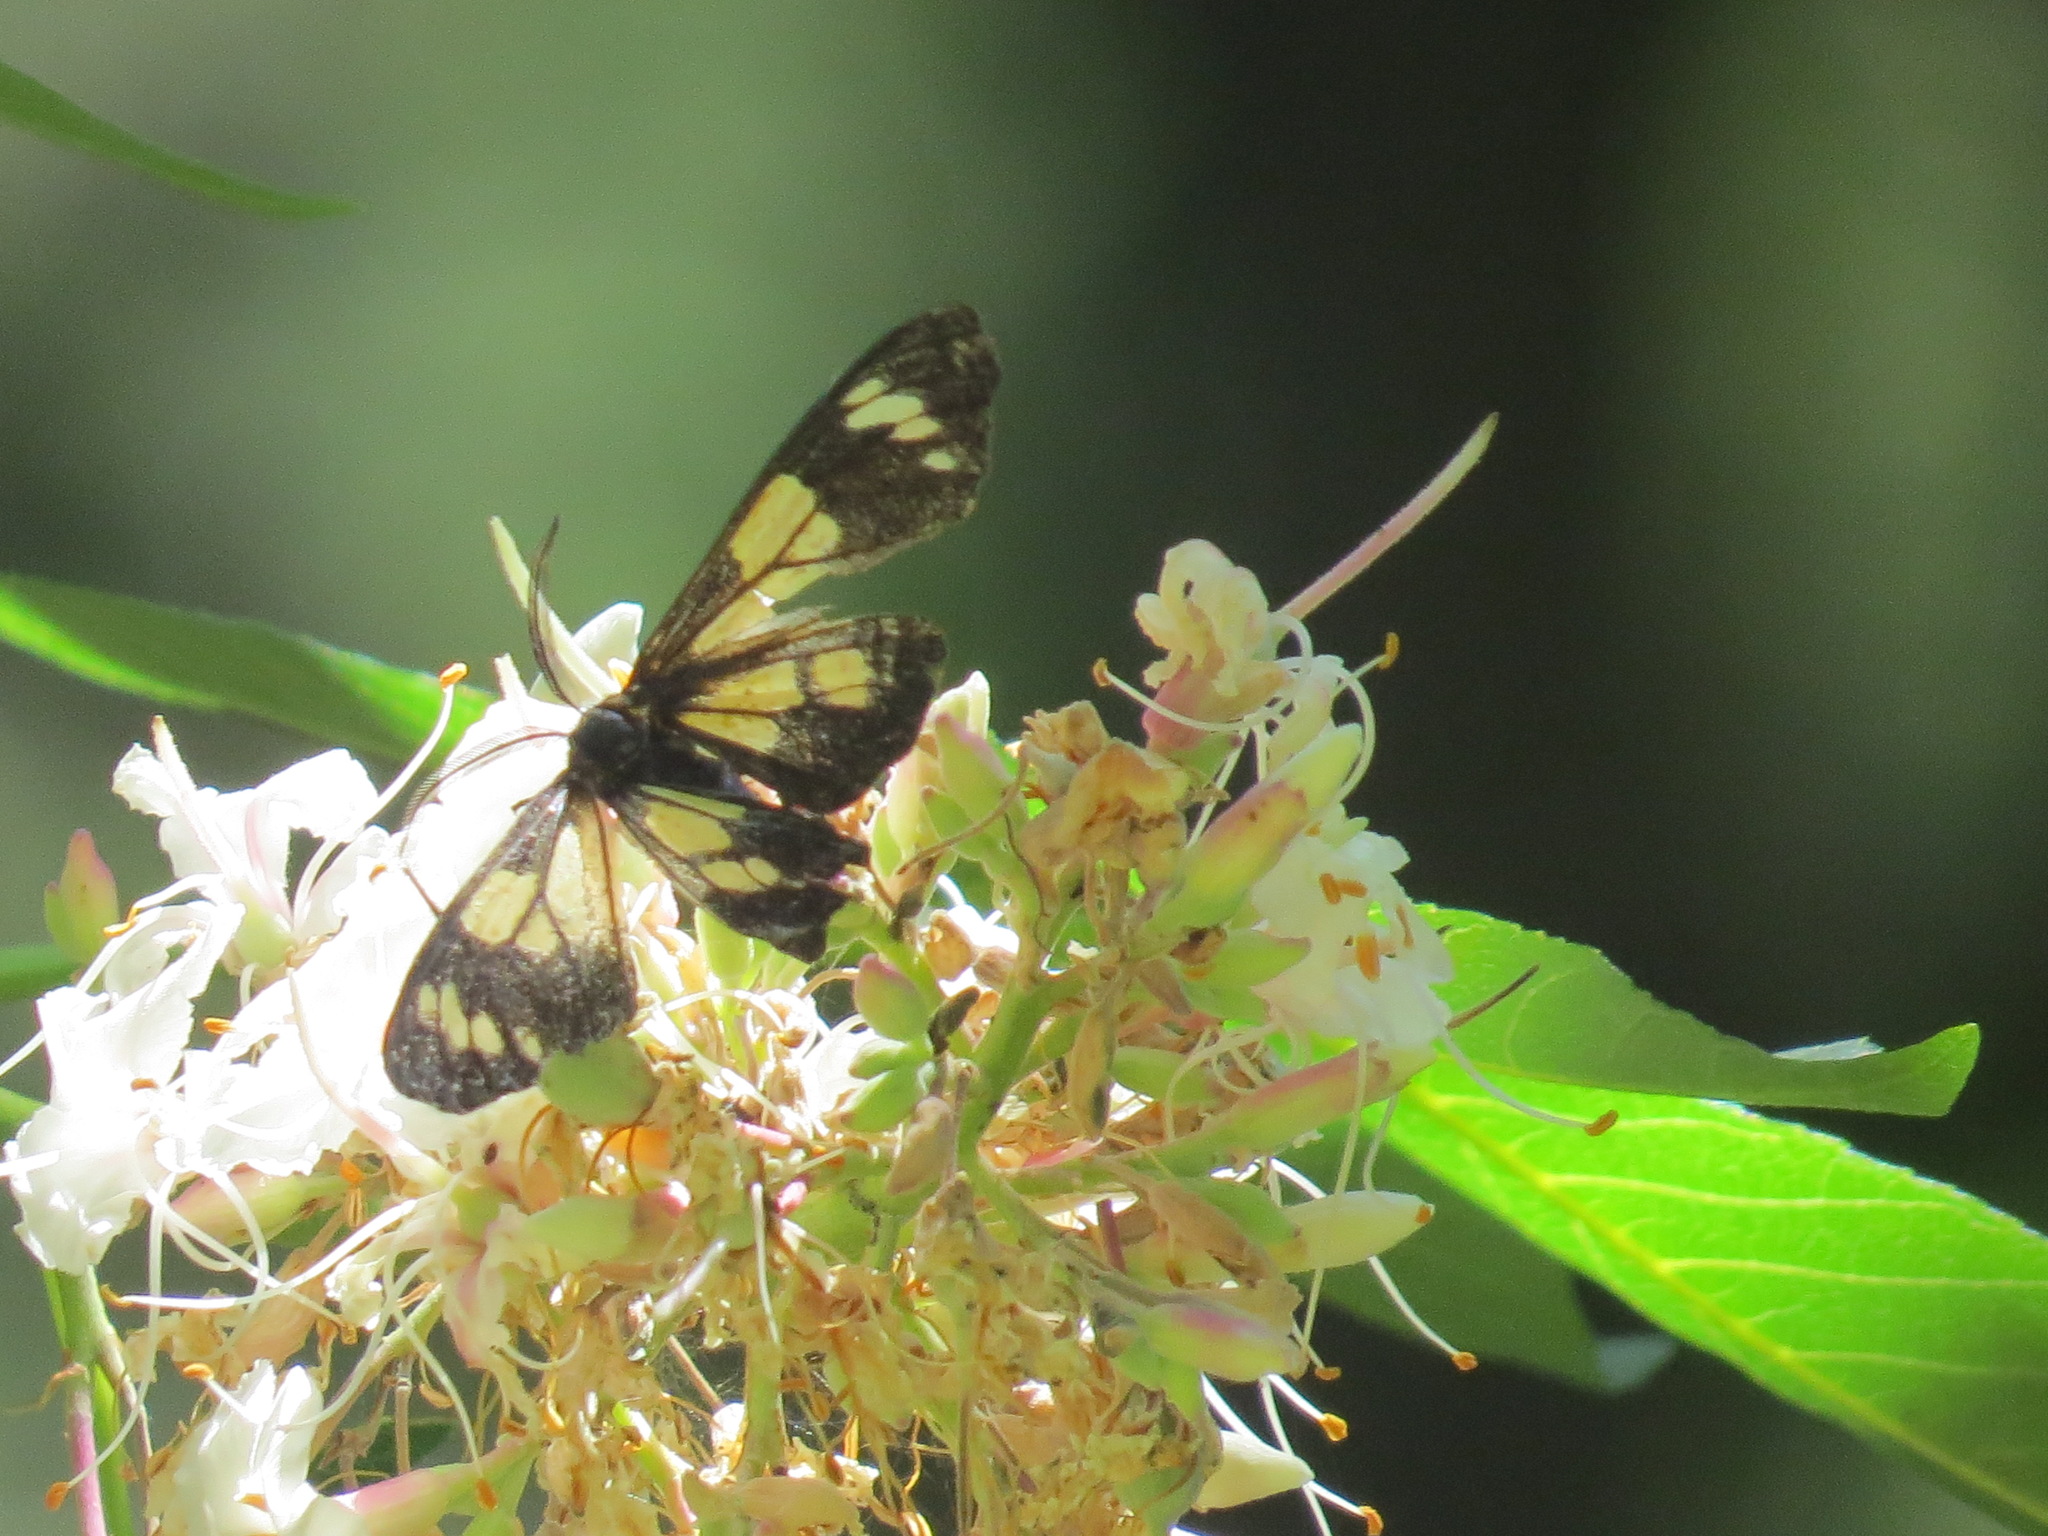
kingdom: Animalia
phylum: Arthropoda
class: Insecta
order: Lepidoptera
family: Erebidae
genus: Gnophaela
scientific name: Gnophaela latipennis
